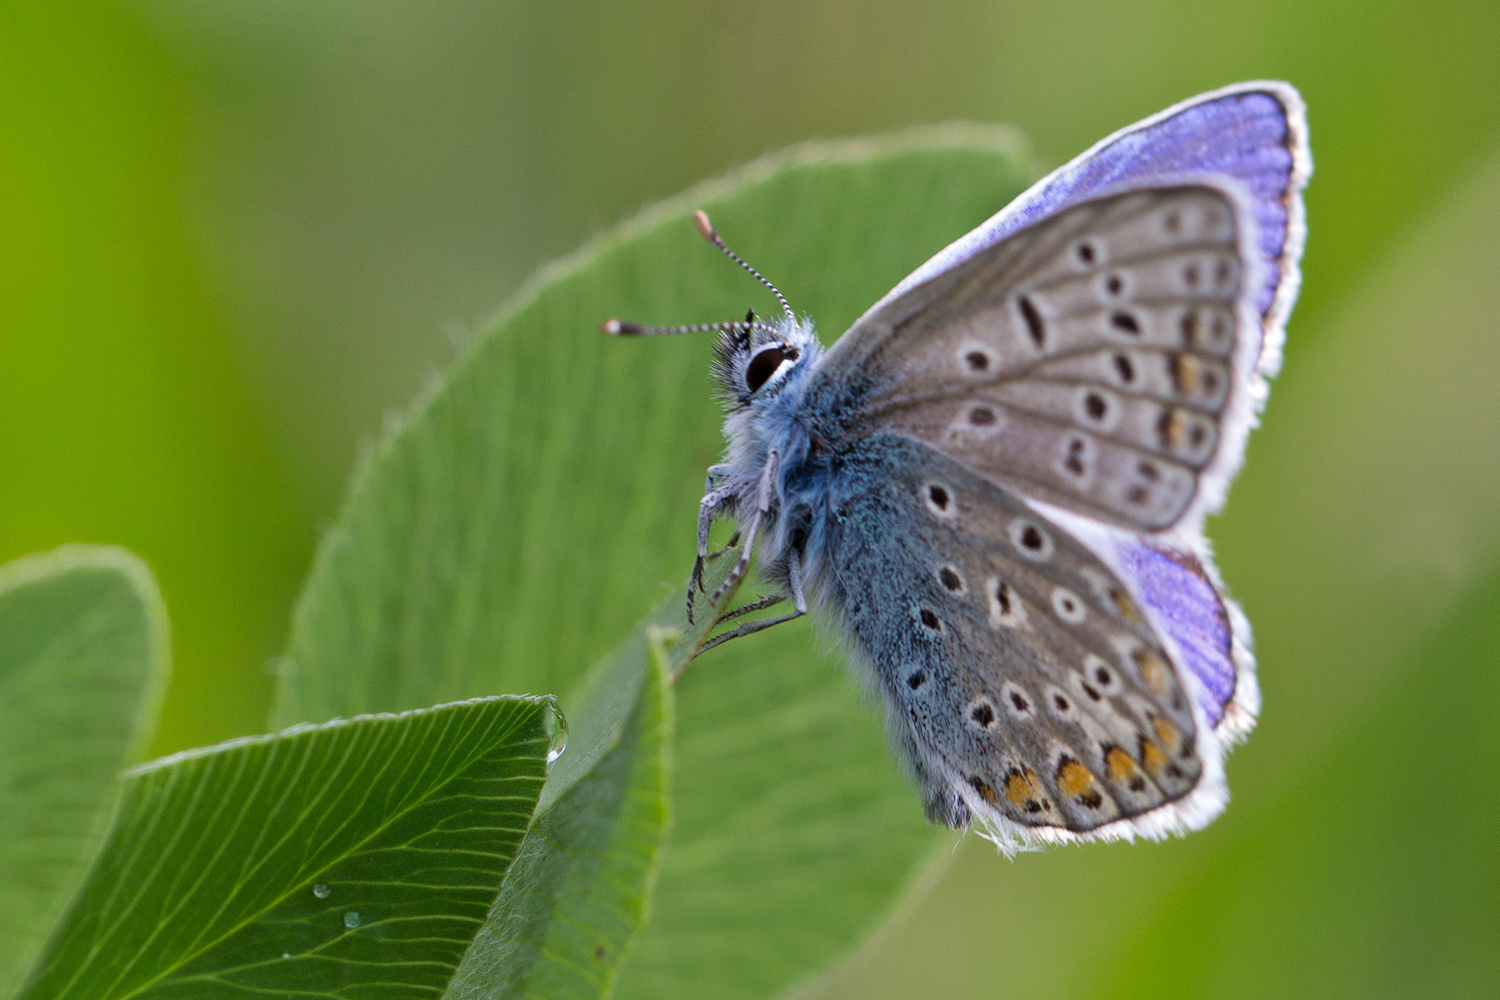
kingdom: Animalia
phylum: Arthropoda
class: Insecta
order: Lepidoptera
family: Lycaenidae
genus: Polyommatus
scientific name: Polyommatus icarus
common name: Common blue
